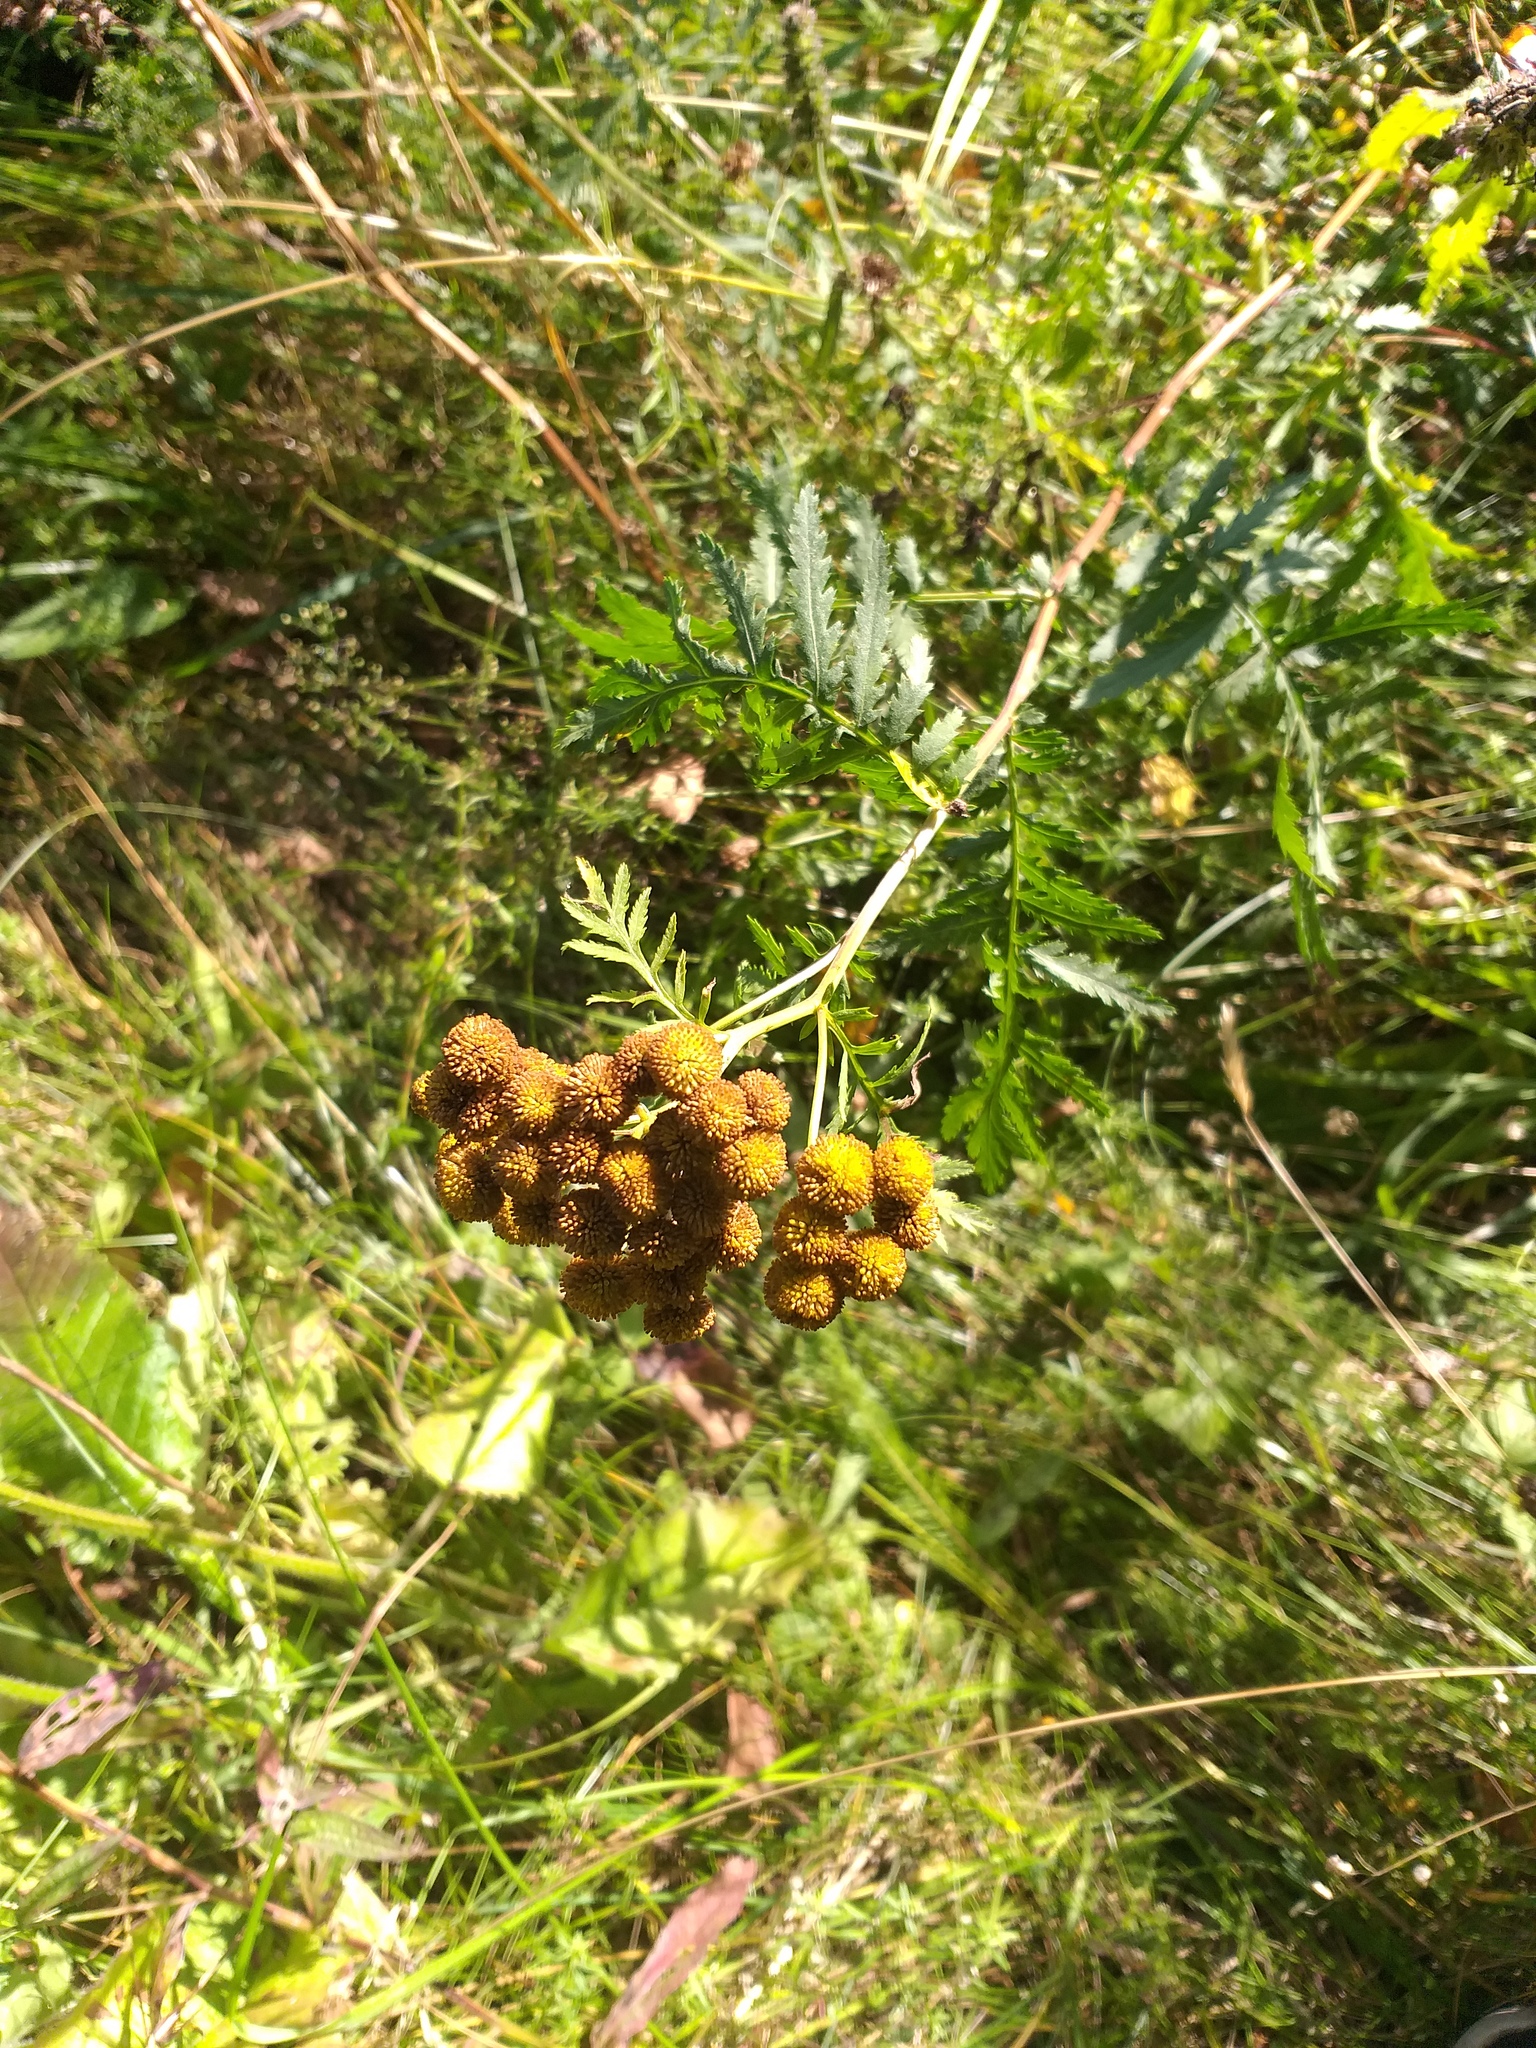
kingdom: Plantae
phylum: Tracheophyta
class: Magnoliopsida
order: Asterales
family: Asteraceae
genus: Tanacetum
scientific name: Tanacetum vulgare
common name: Common tansy
